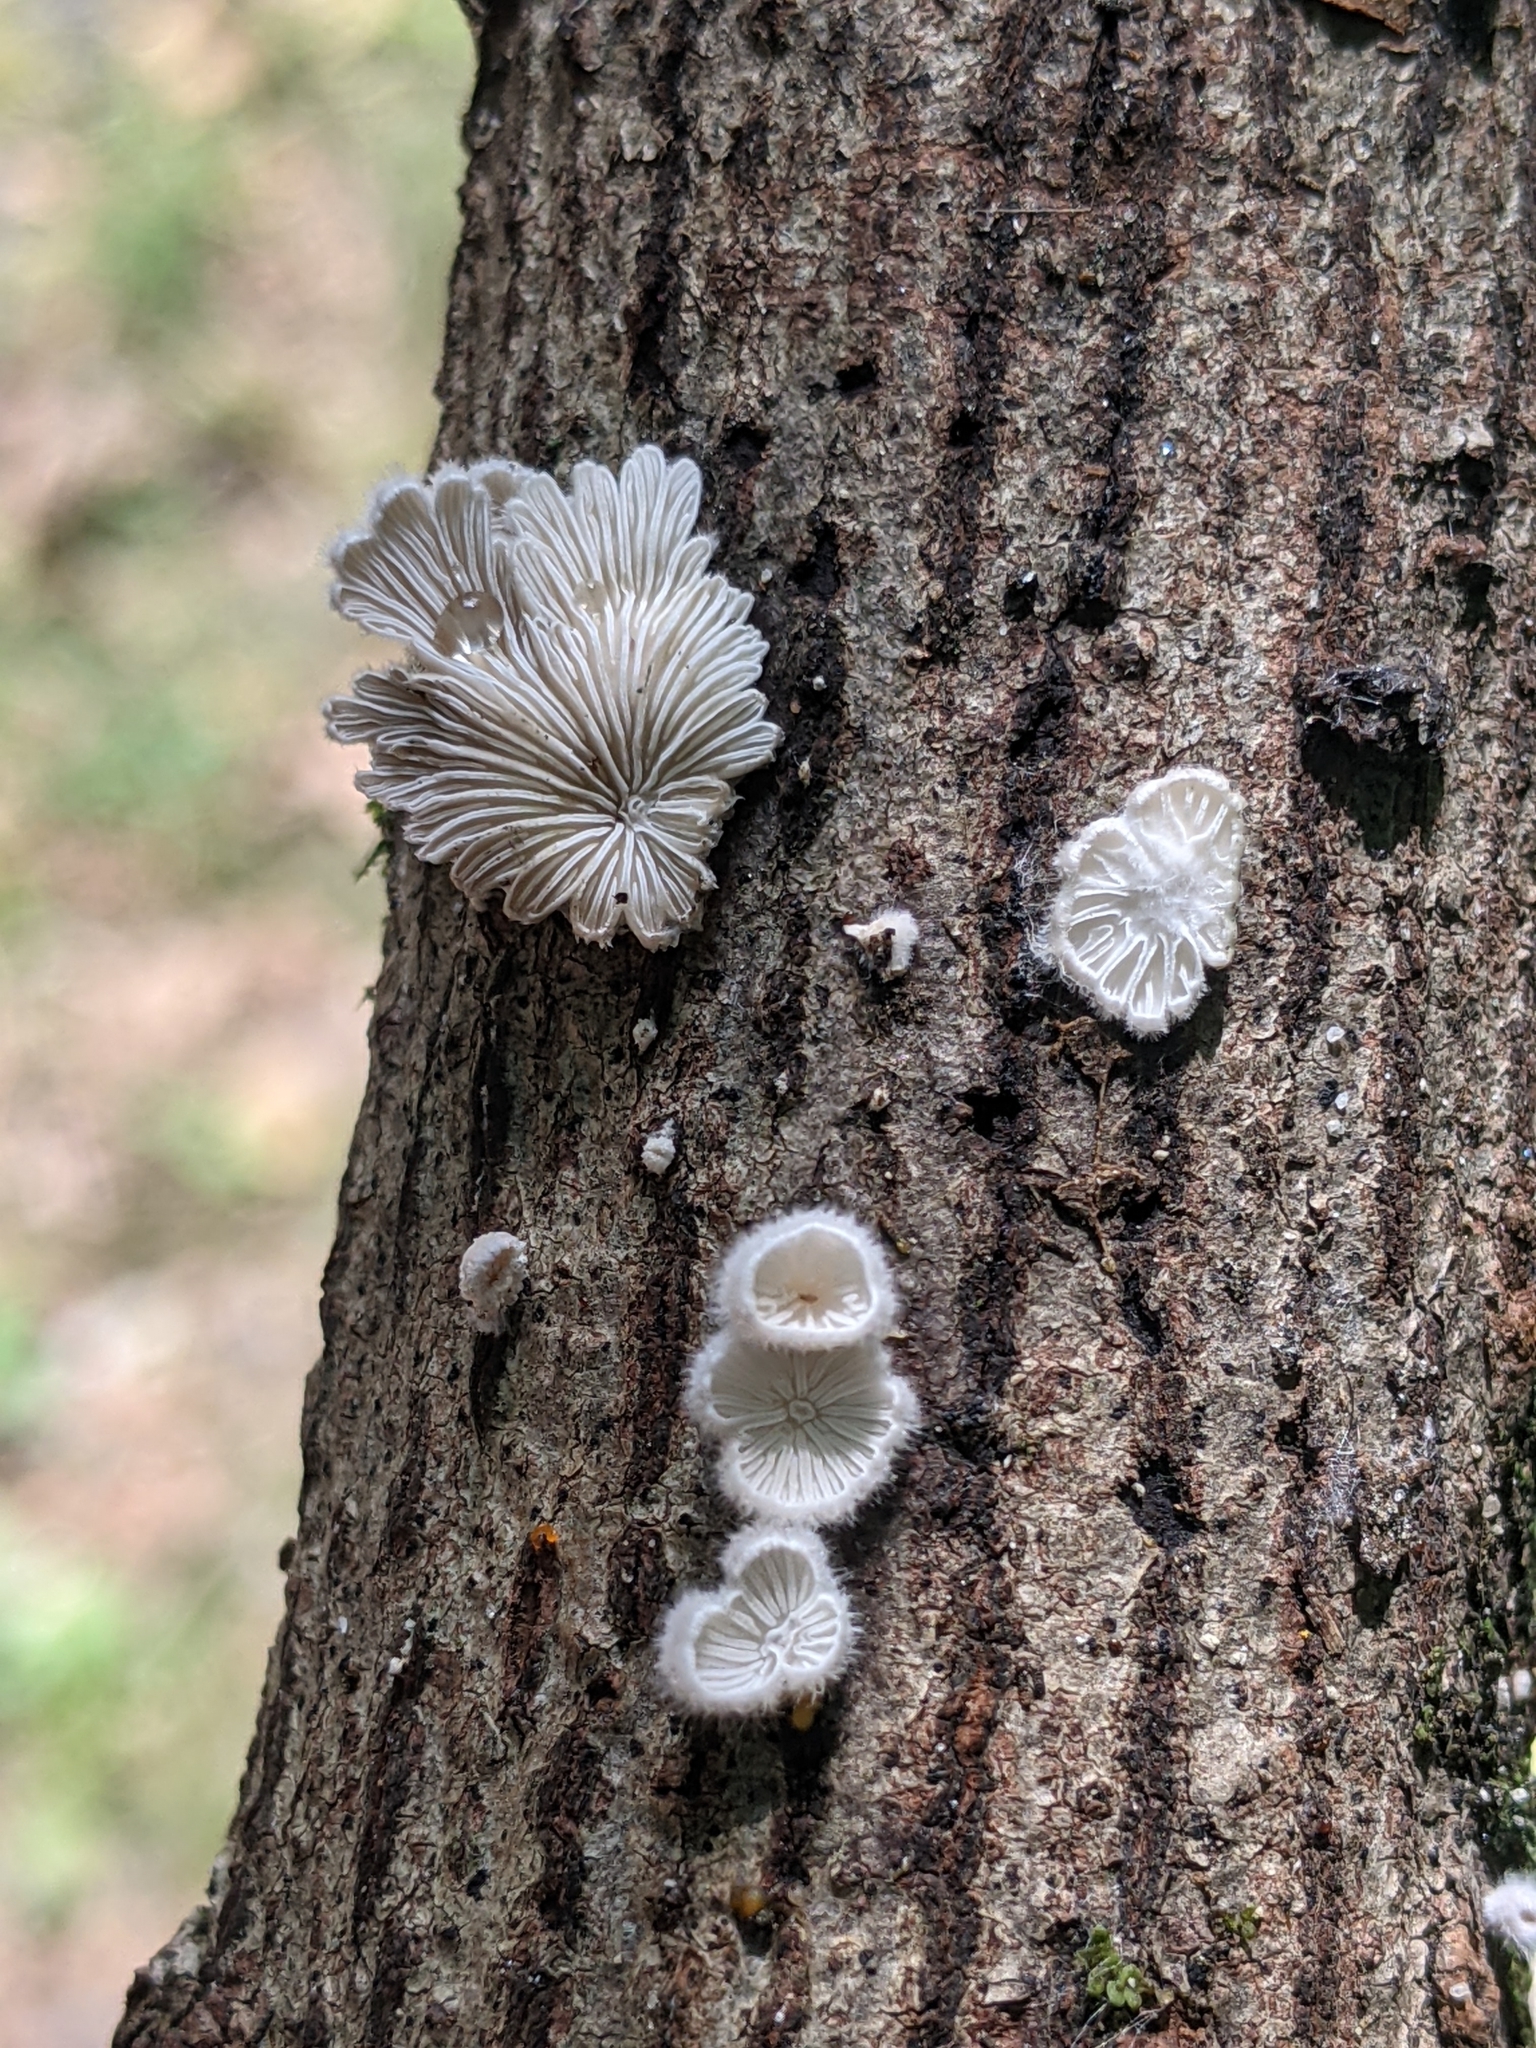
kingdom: Fungi
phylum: Basidiomycota
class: Agaricomycetes
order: Agaricales
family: Schizophyllaceae
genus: Schizophyllum
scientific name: Schizophyllum commune
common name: Common porecrust
